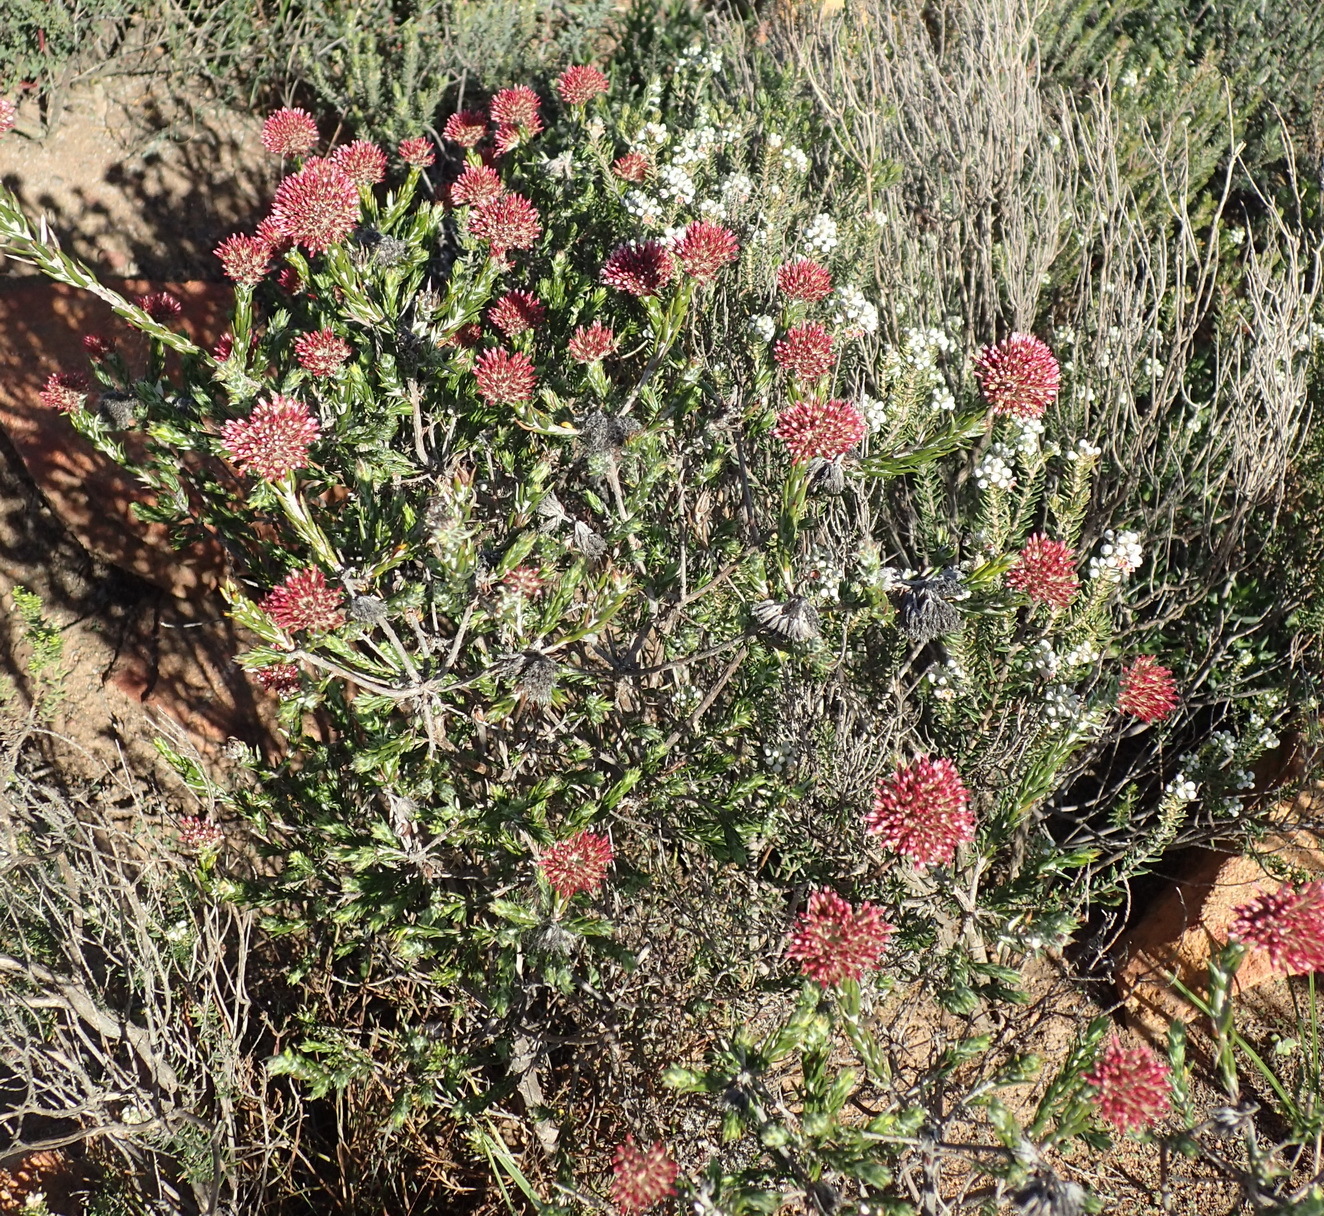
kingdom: Plantae
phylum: Tracheophyta
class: Magnoliopsida
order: Asterales
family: Asteraceae
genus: Metalasia
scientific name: Metalasia pallida
